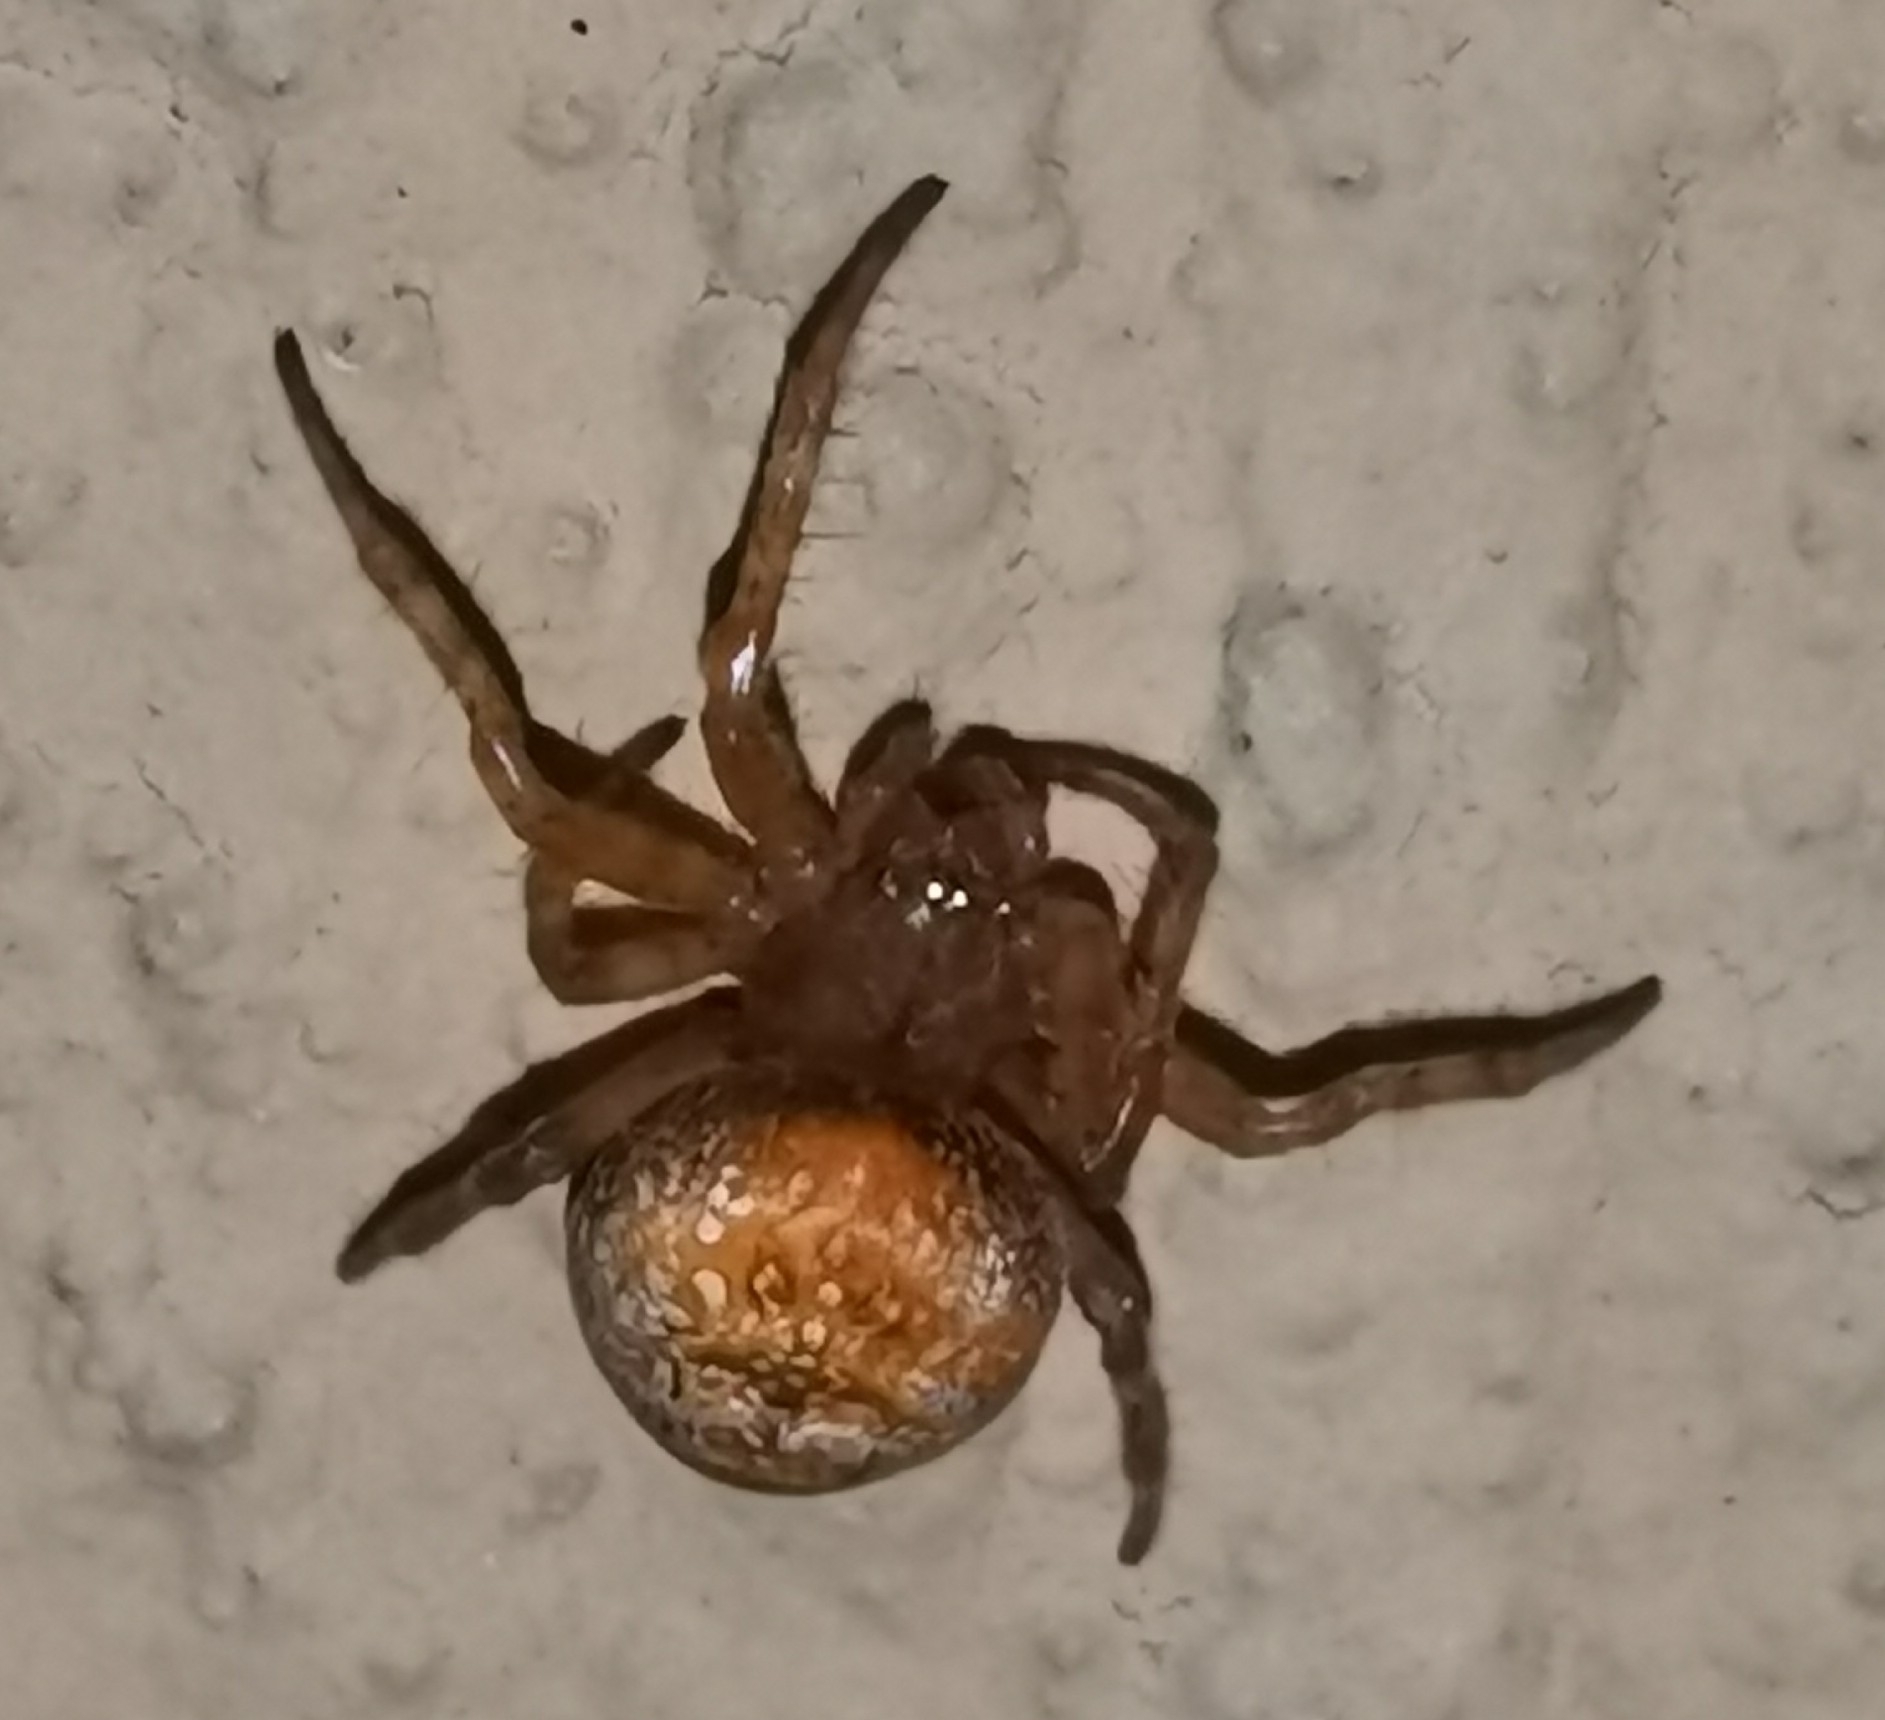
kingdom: Animalia
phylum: Arthropoda
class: Arachnida
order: Araneae
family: Araneidae
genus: Araneus
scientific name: Araneus alsine
